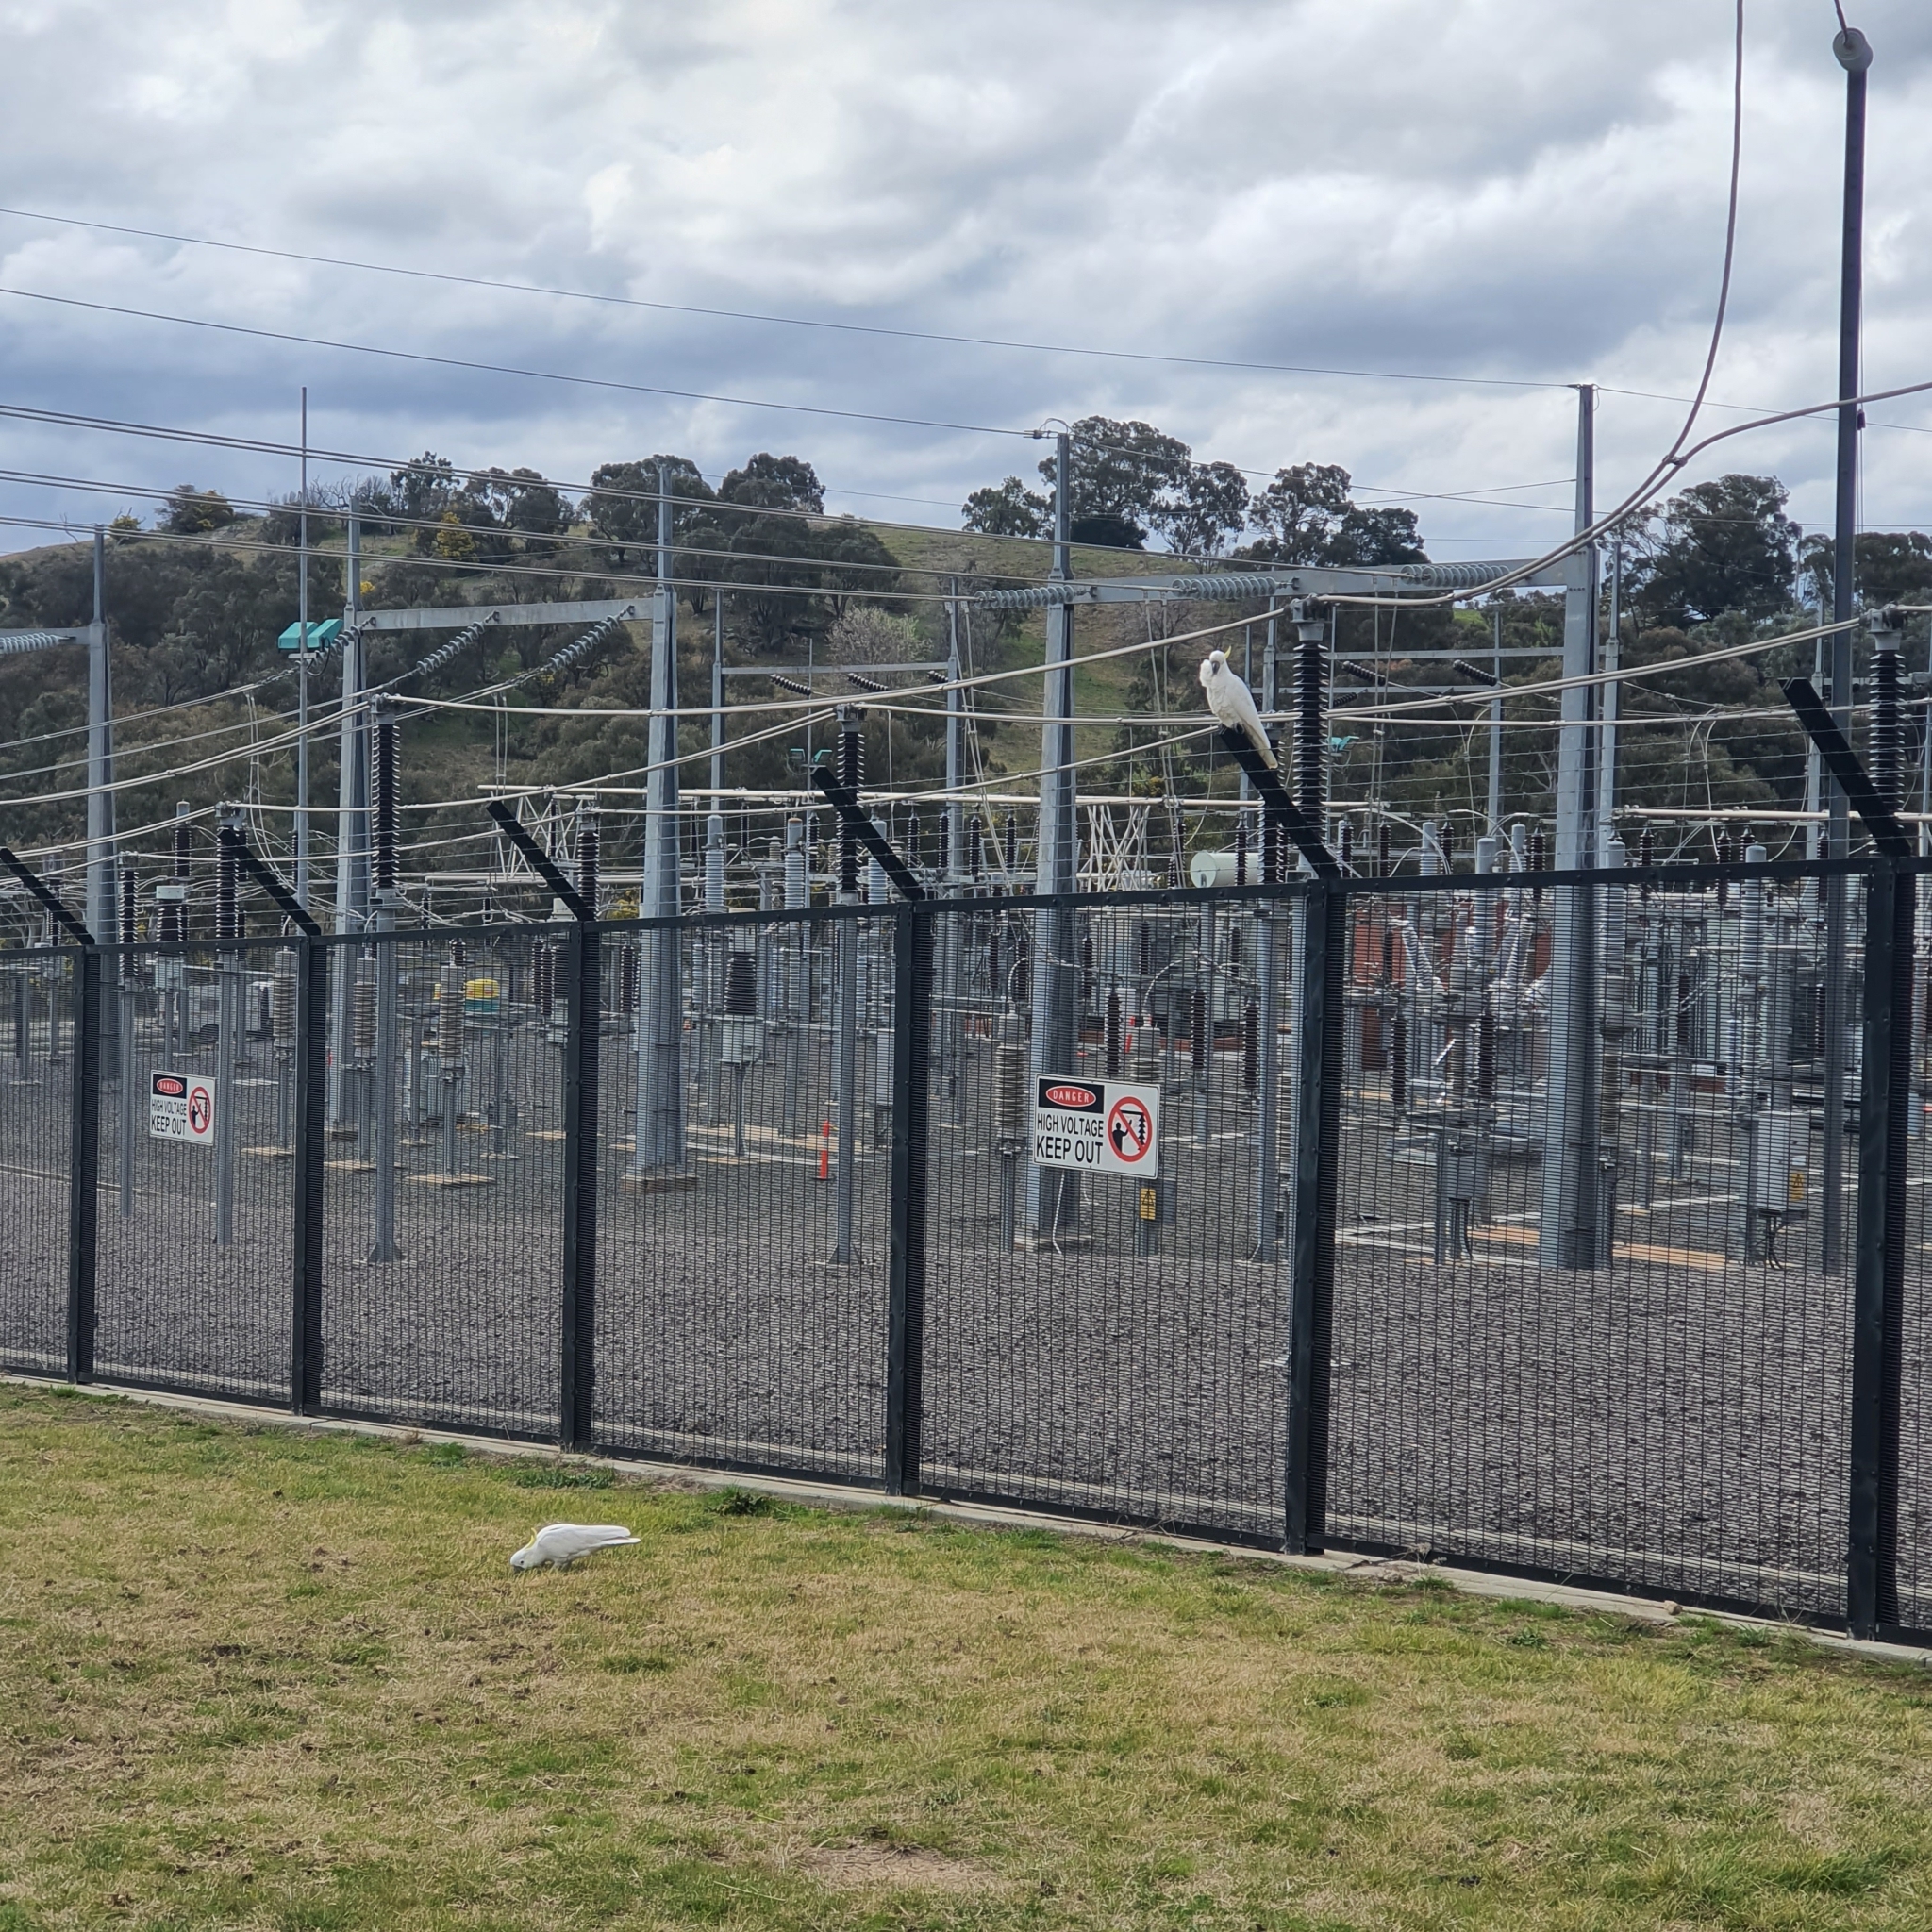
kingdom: Animalia
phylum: Chordata
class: Aves
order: Psittaciformes
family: Psittacidae
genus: Cacatua
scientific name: Cacatua galerita
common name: Sulphur-crested cockatoo
